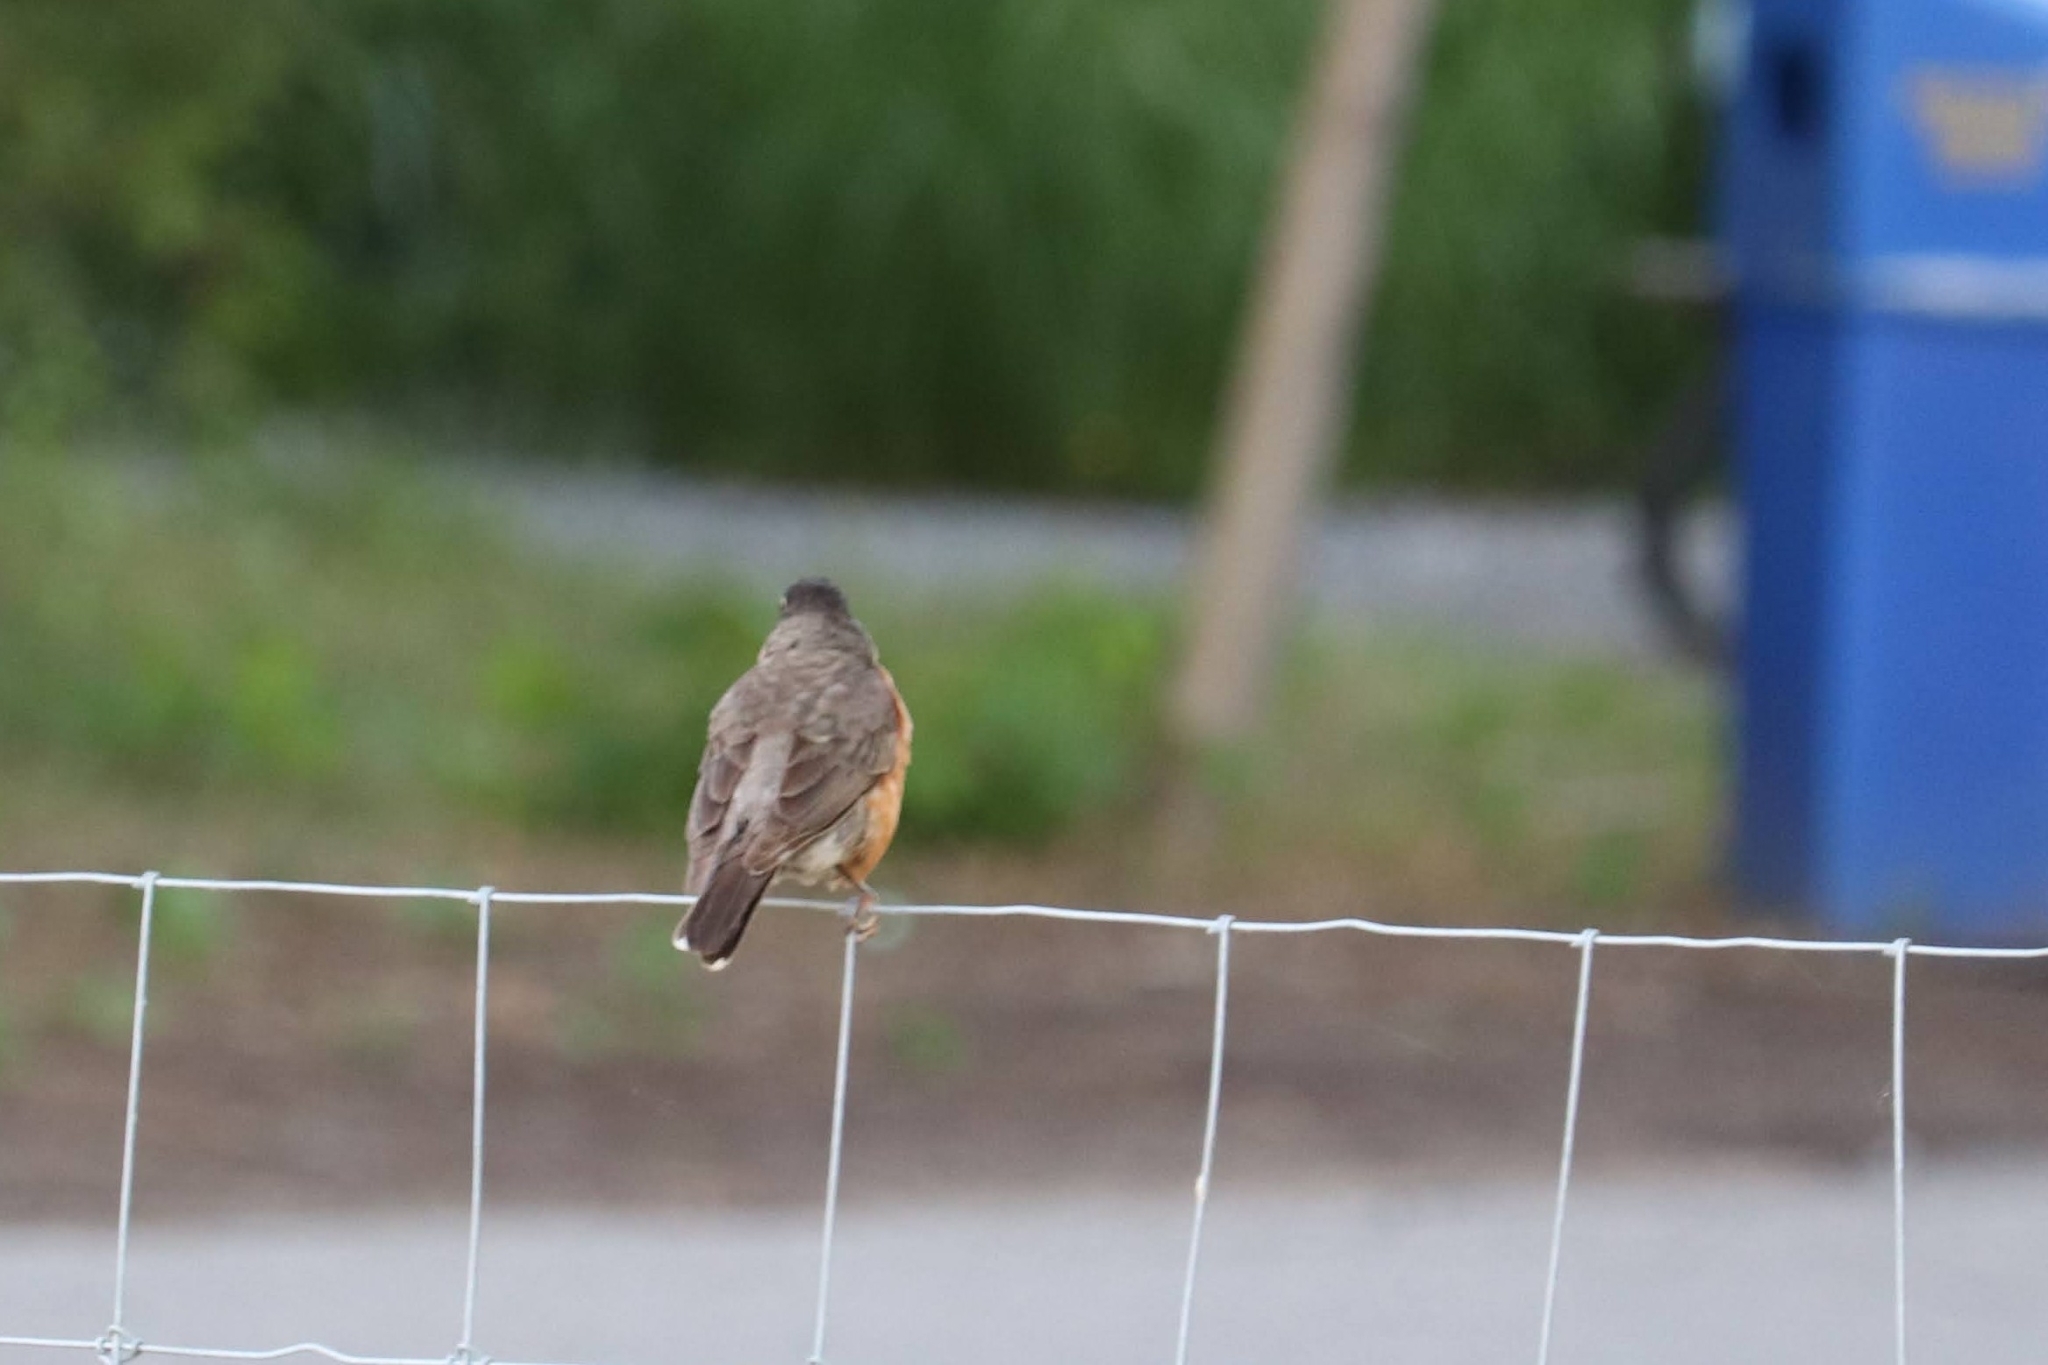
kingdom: Animalia
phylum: Chordata
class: Aves
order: Passeriformes
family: Turdidae
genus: Turdus
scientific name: Turdus migratorius
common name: American robin
